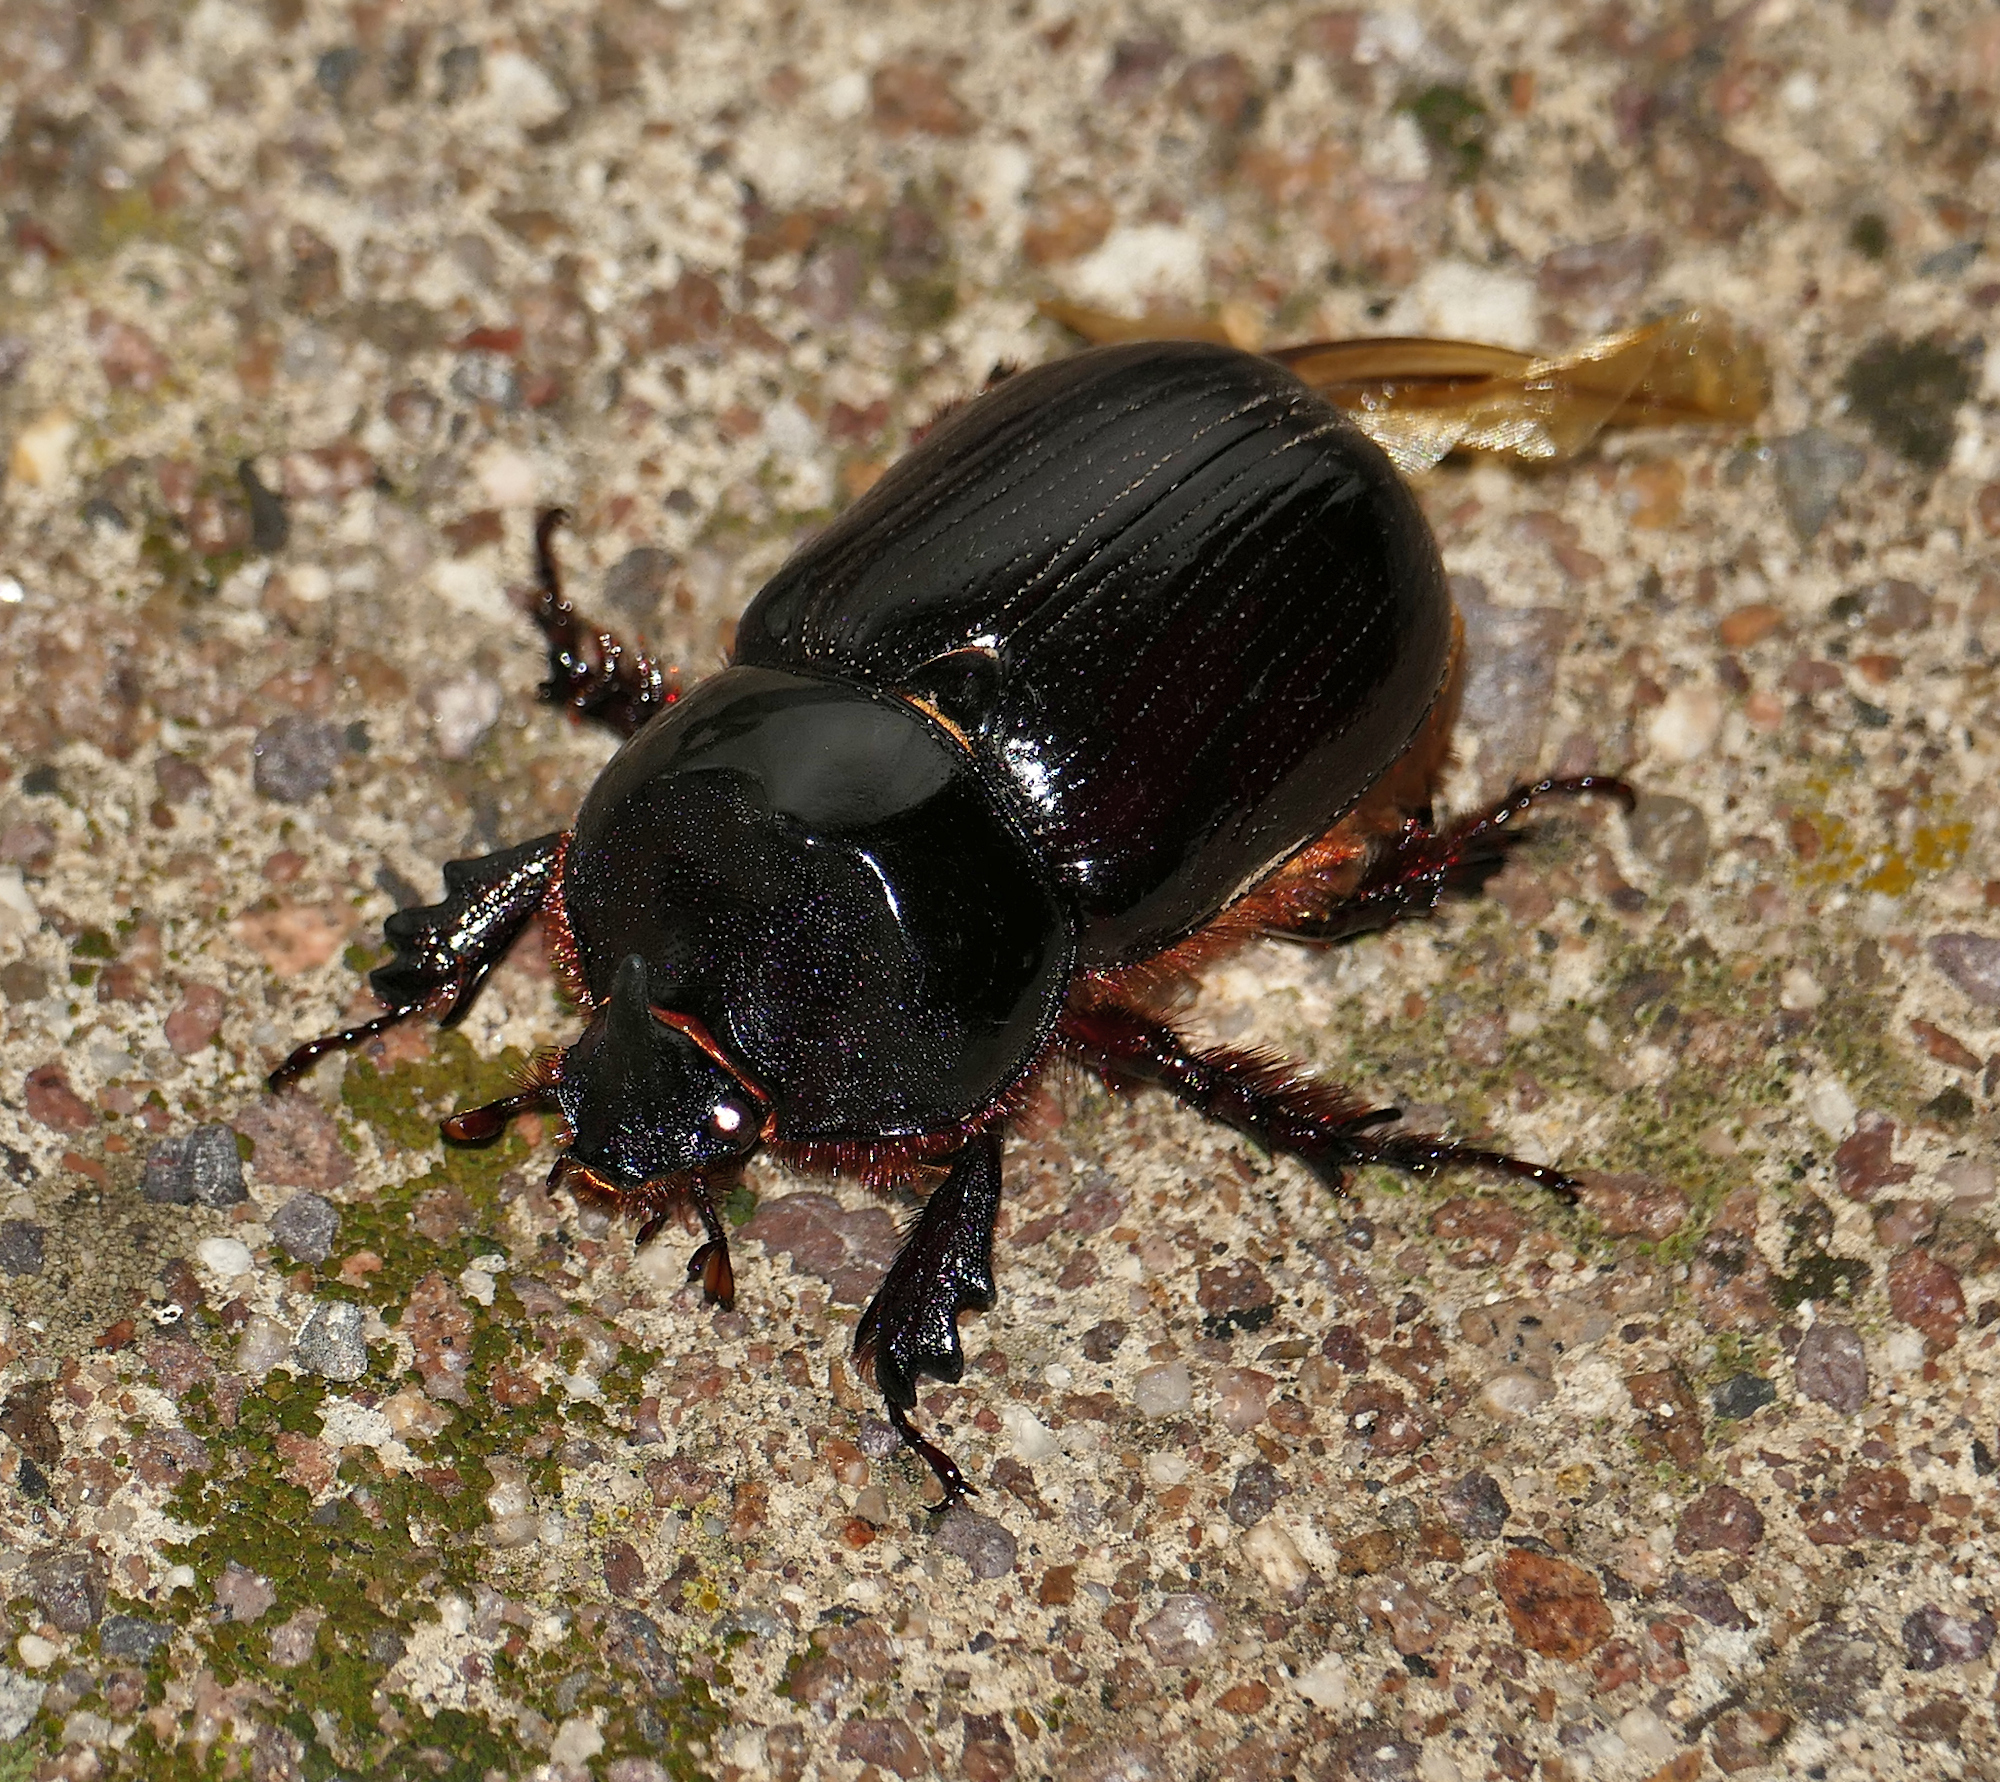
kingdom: Animalia
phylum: Arthropoda
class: Insecta
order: Coleoptera
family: Scarabaeidae
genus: Xyloryctes
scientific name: Xyloryctes thestalus
